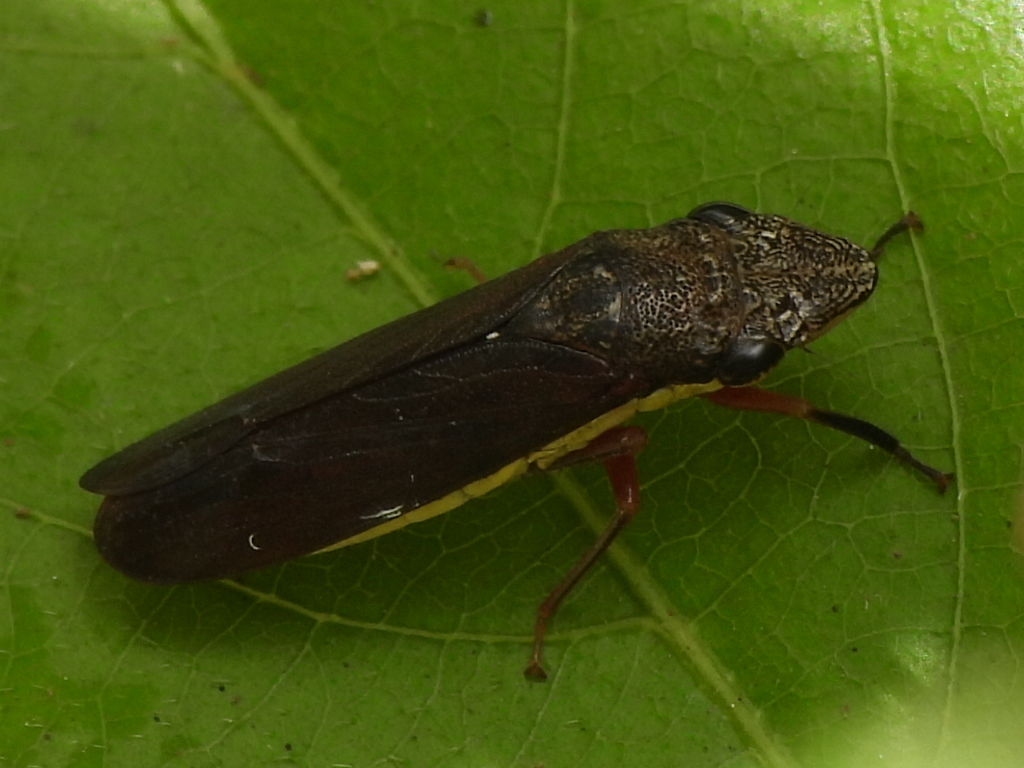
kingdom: Animalia
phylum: Arthropoda
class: Insecta
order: Hemiptera
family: Cicadellidae
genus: Homalodisca
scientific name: Homalodisca insolita
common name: Johnson grass sharpshooter
